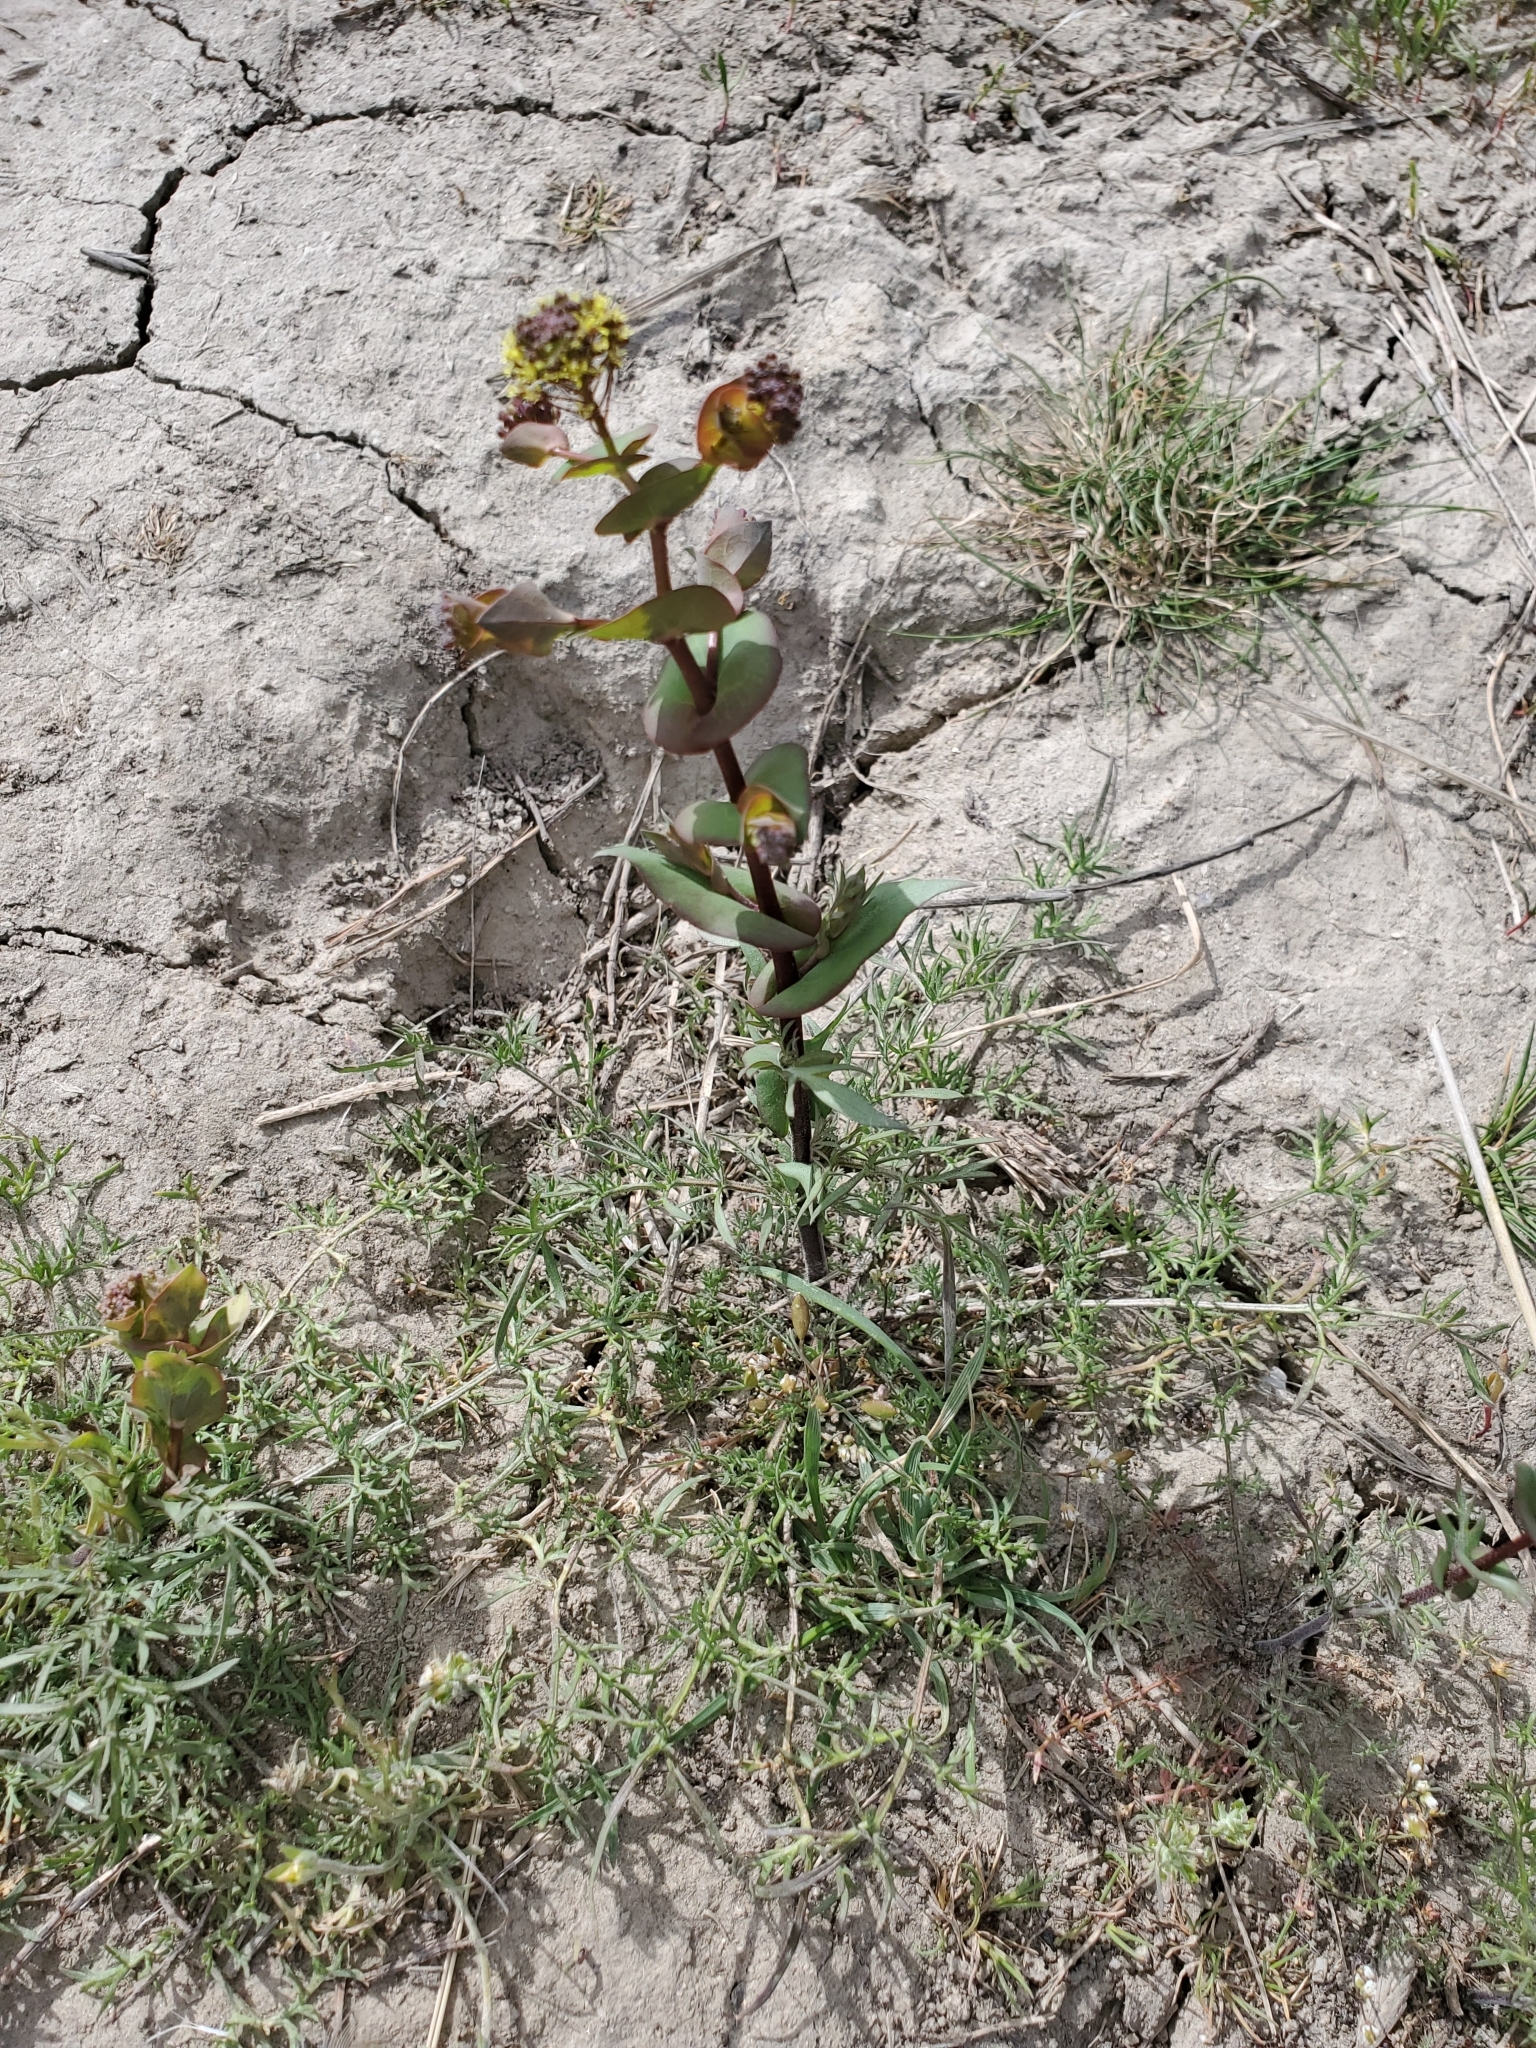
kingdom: Plantae
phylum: Tracheophyta
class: Magnoliopsida
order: Brassicales
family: Brassicaceae
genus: Lepidium
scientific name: Lepidium perfoliatum
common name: Perfoliate pepperwort
